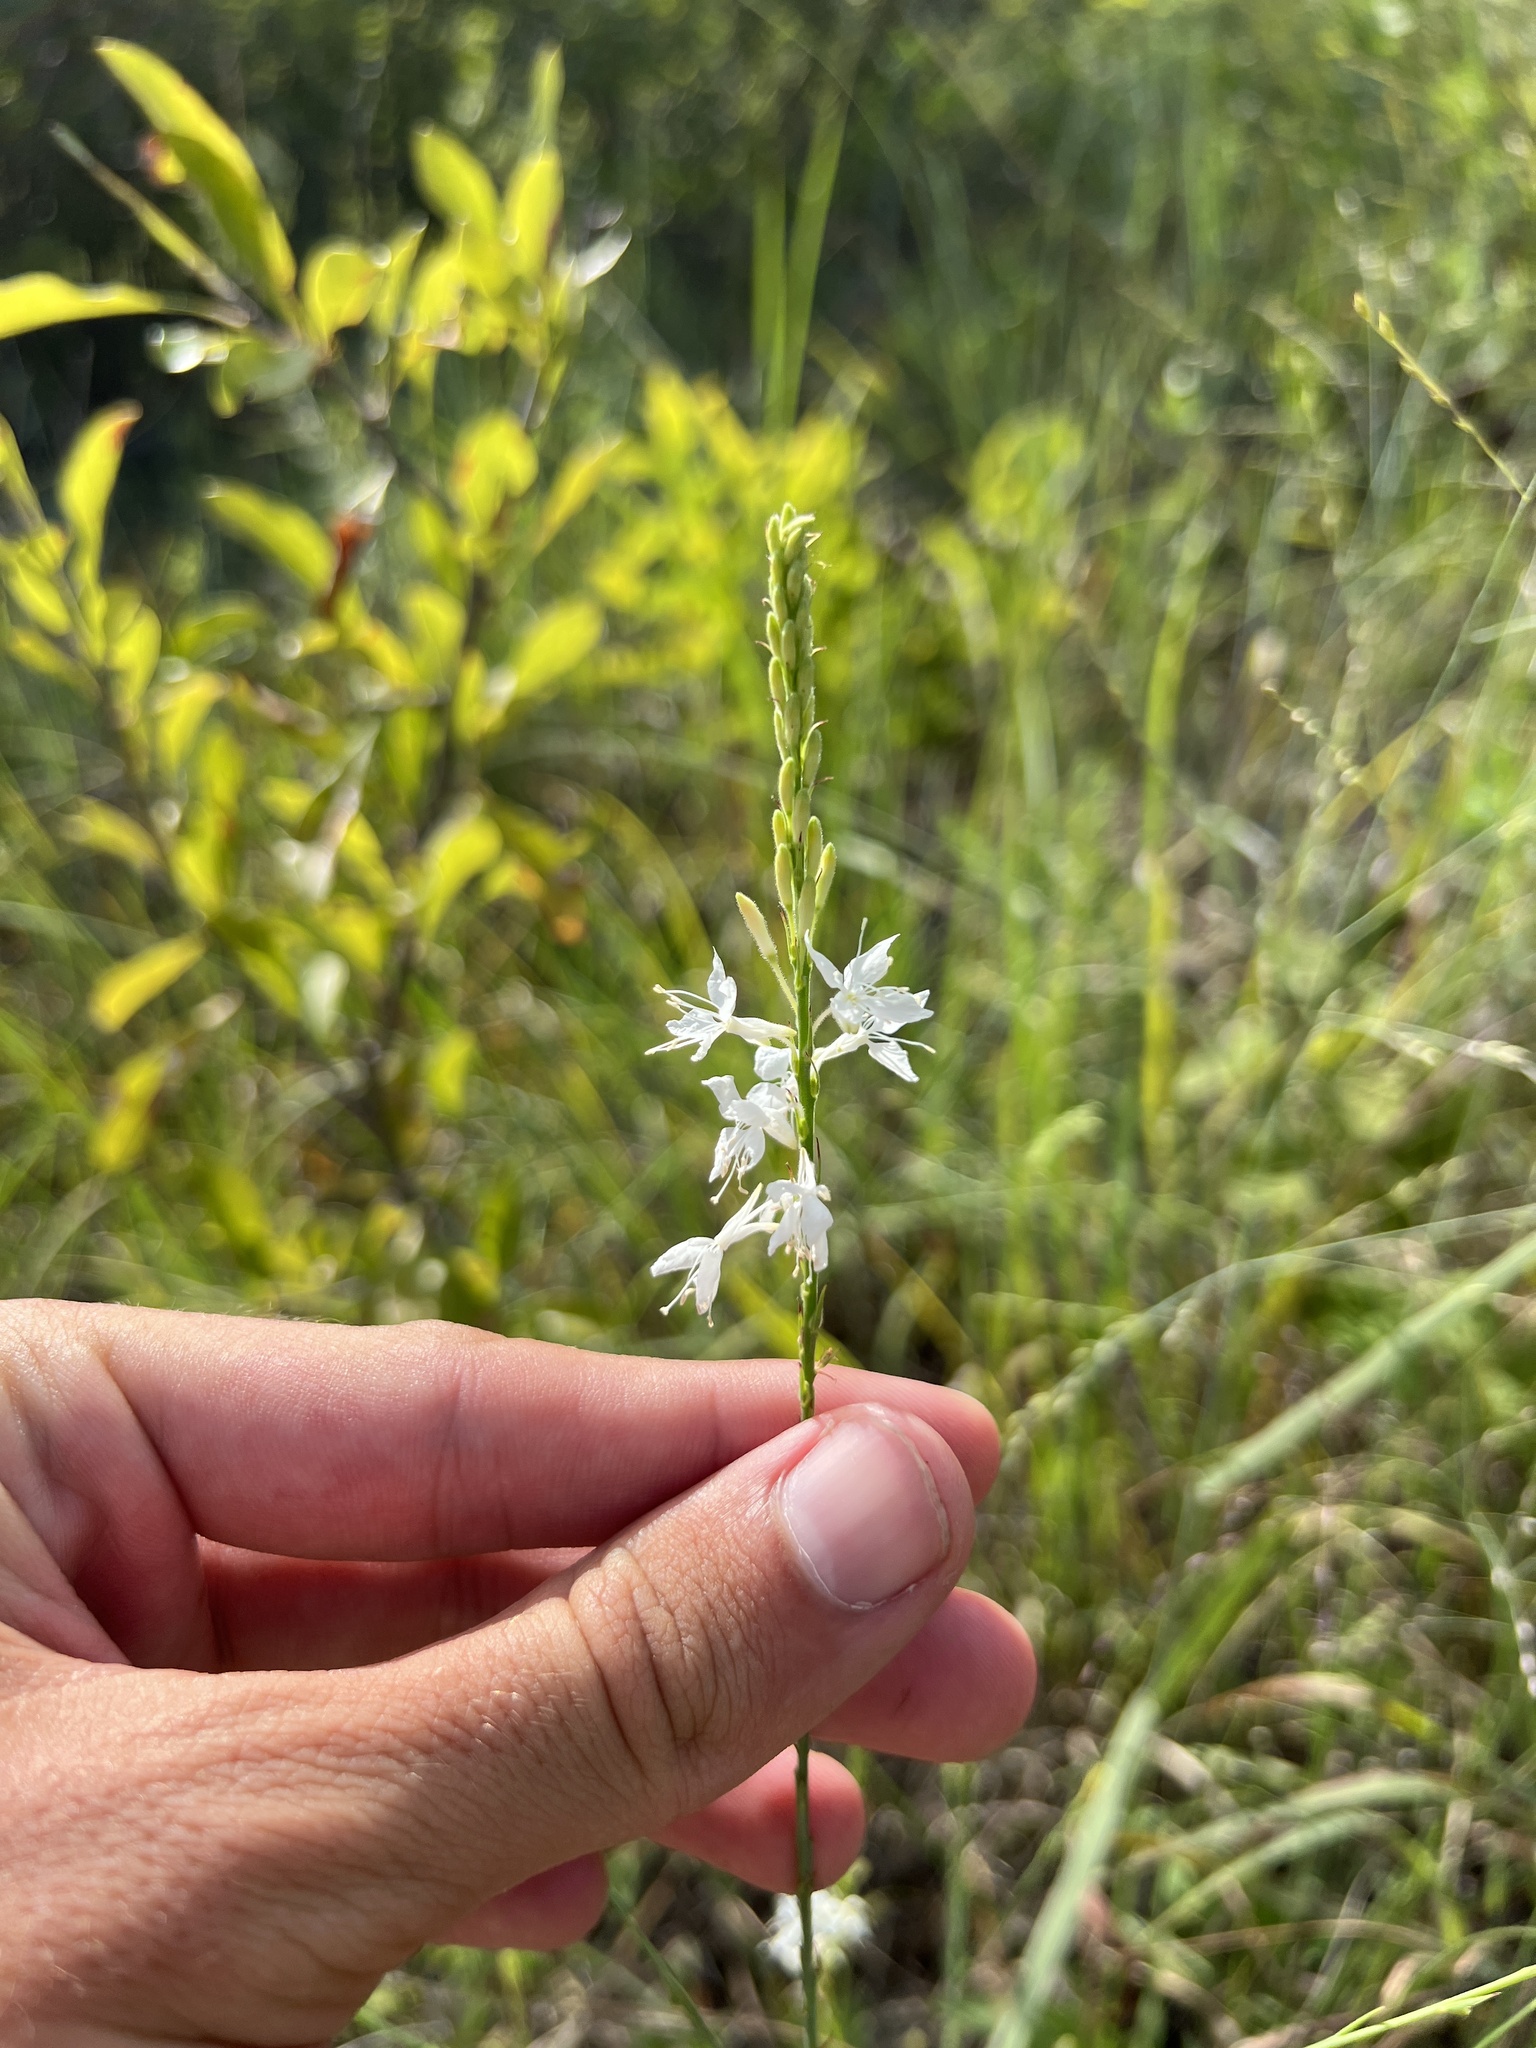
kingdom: Plantae
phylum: Tracheophyta
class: Magnoliopsida
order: Myrtales
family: Onagraceae
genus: Oenothera
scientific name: Oenothera glaucifolia
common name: False gaura
